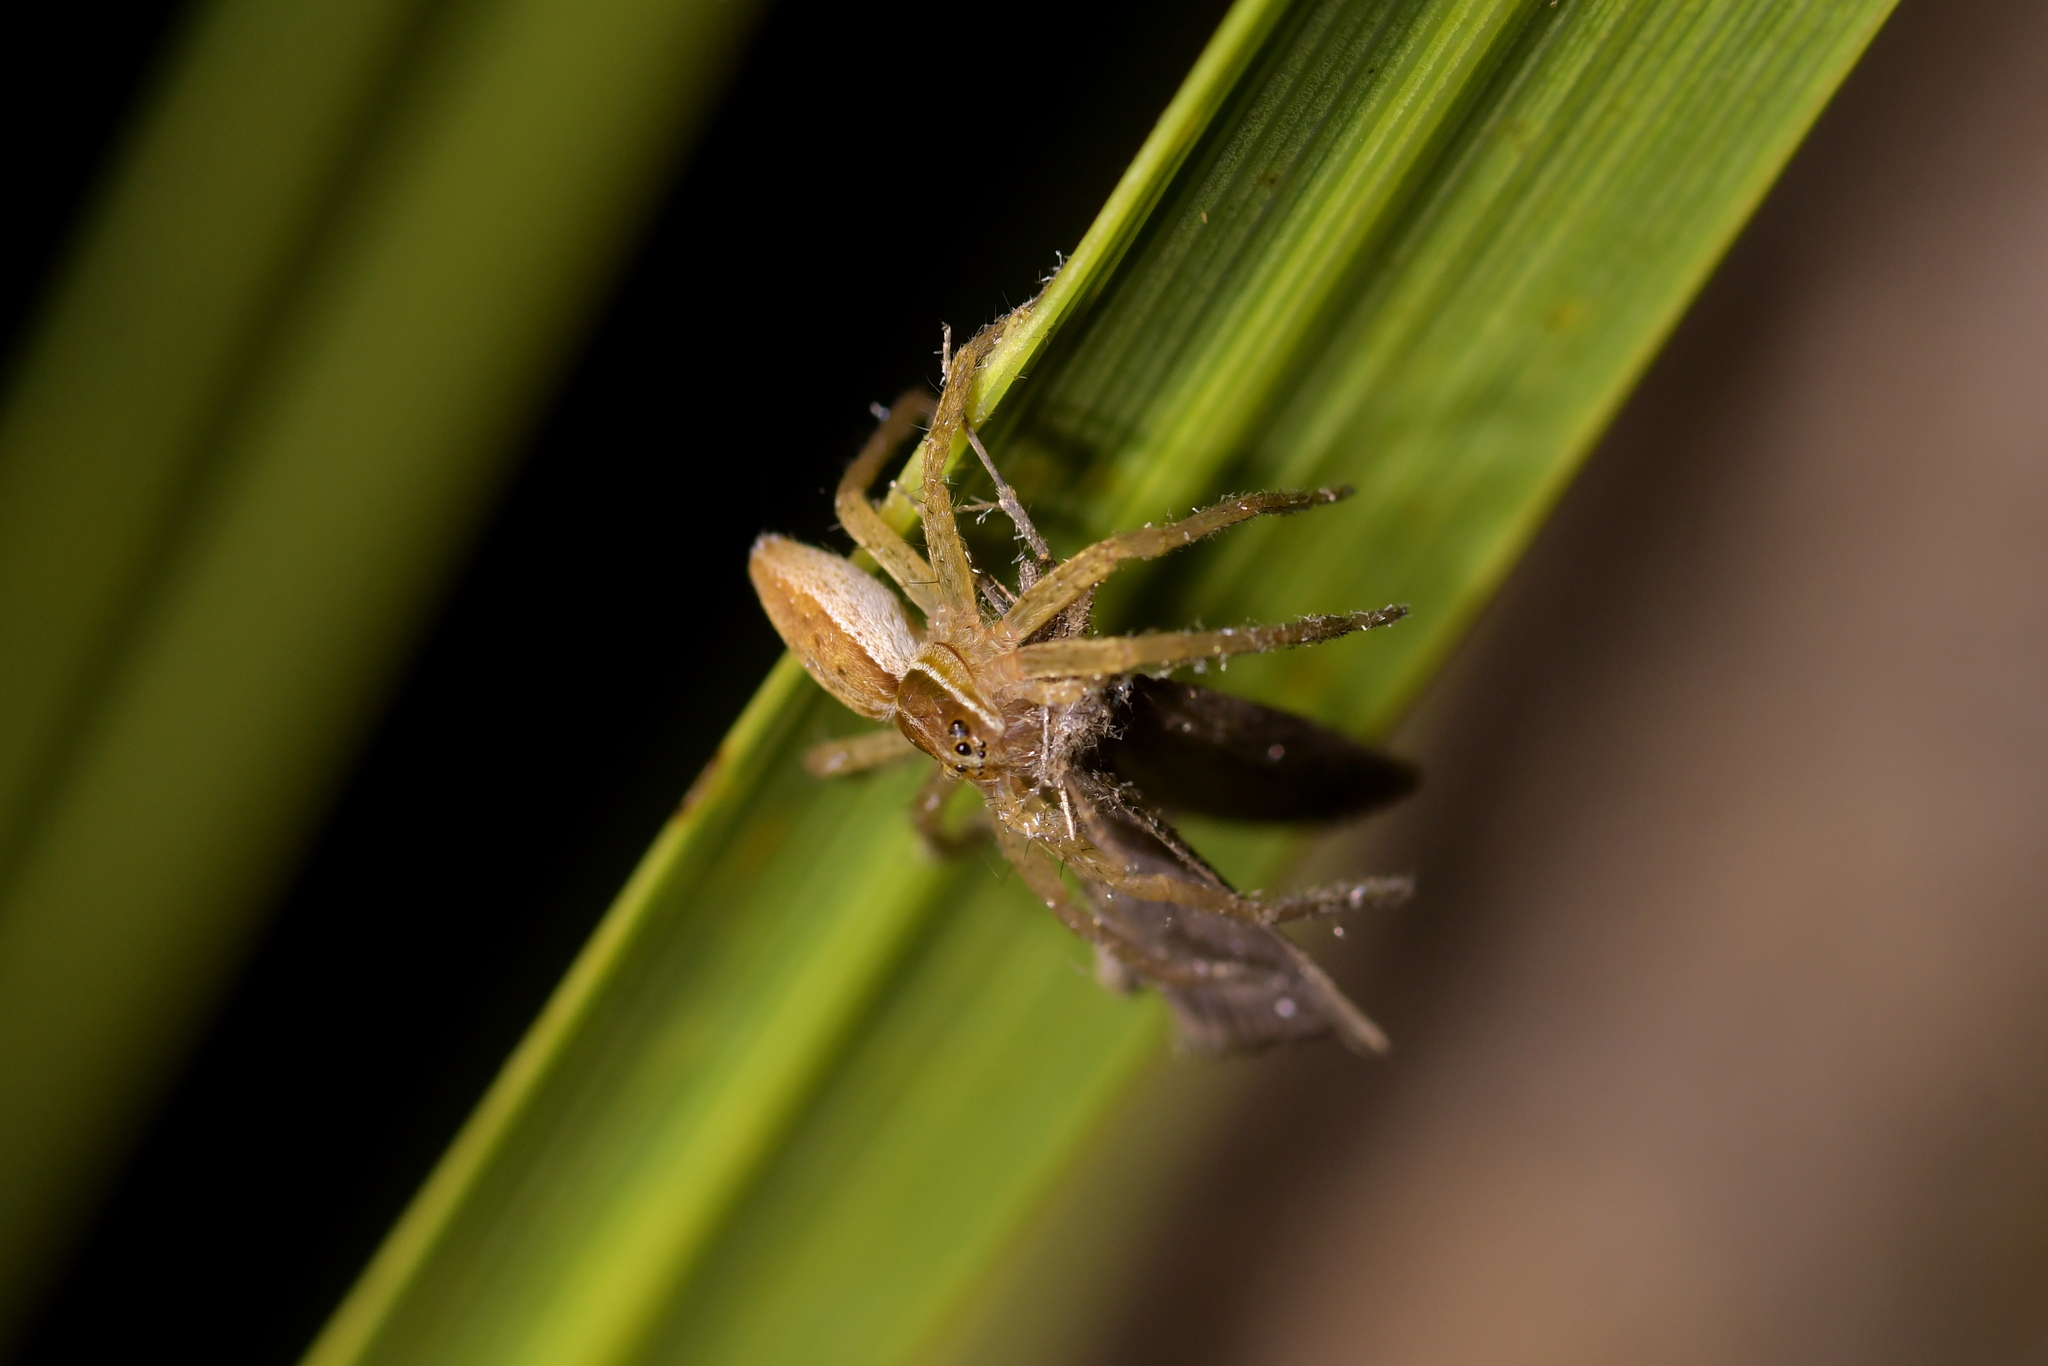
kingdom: Animalia
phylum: Arthropoda
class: Arachnida
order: Araneae
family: Pisauridae
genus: Dolomedes
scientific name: Dolomedes minor
